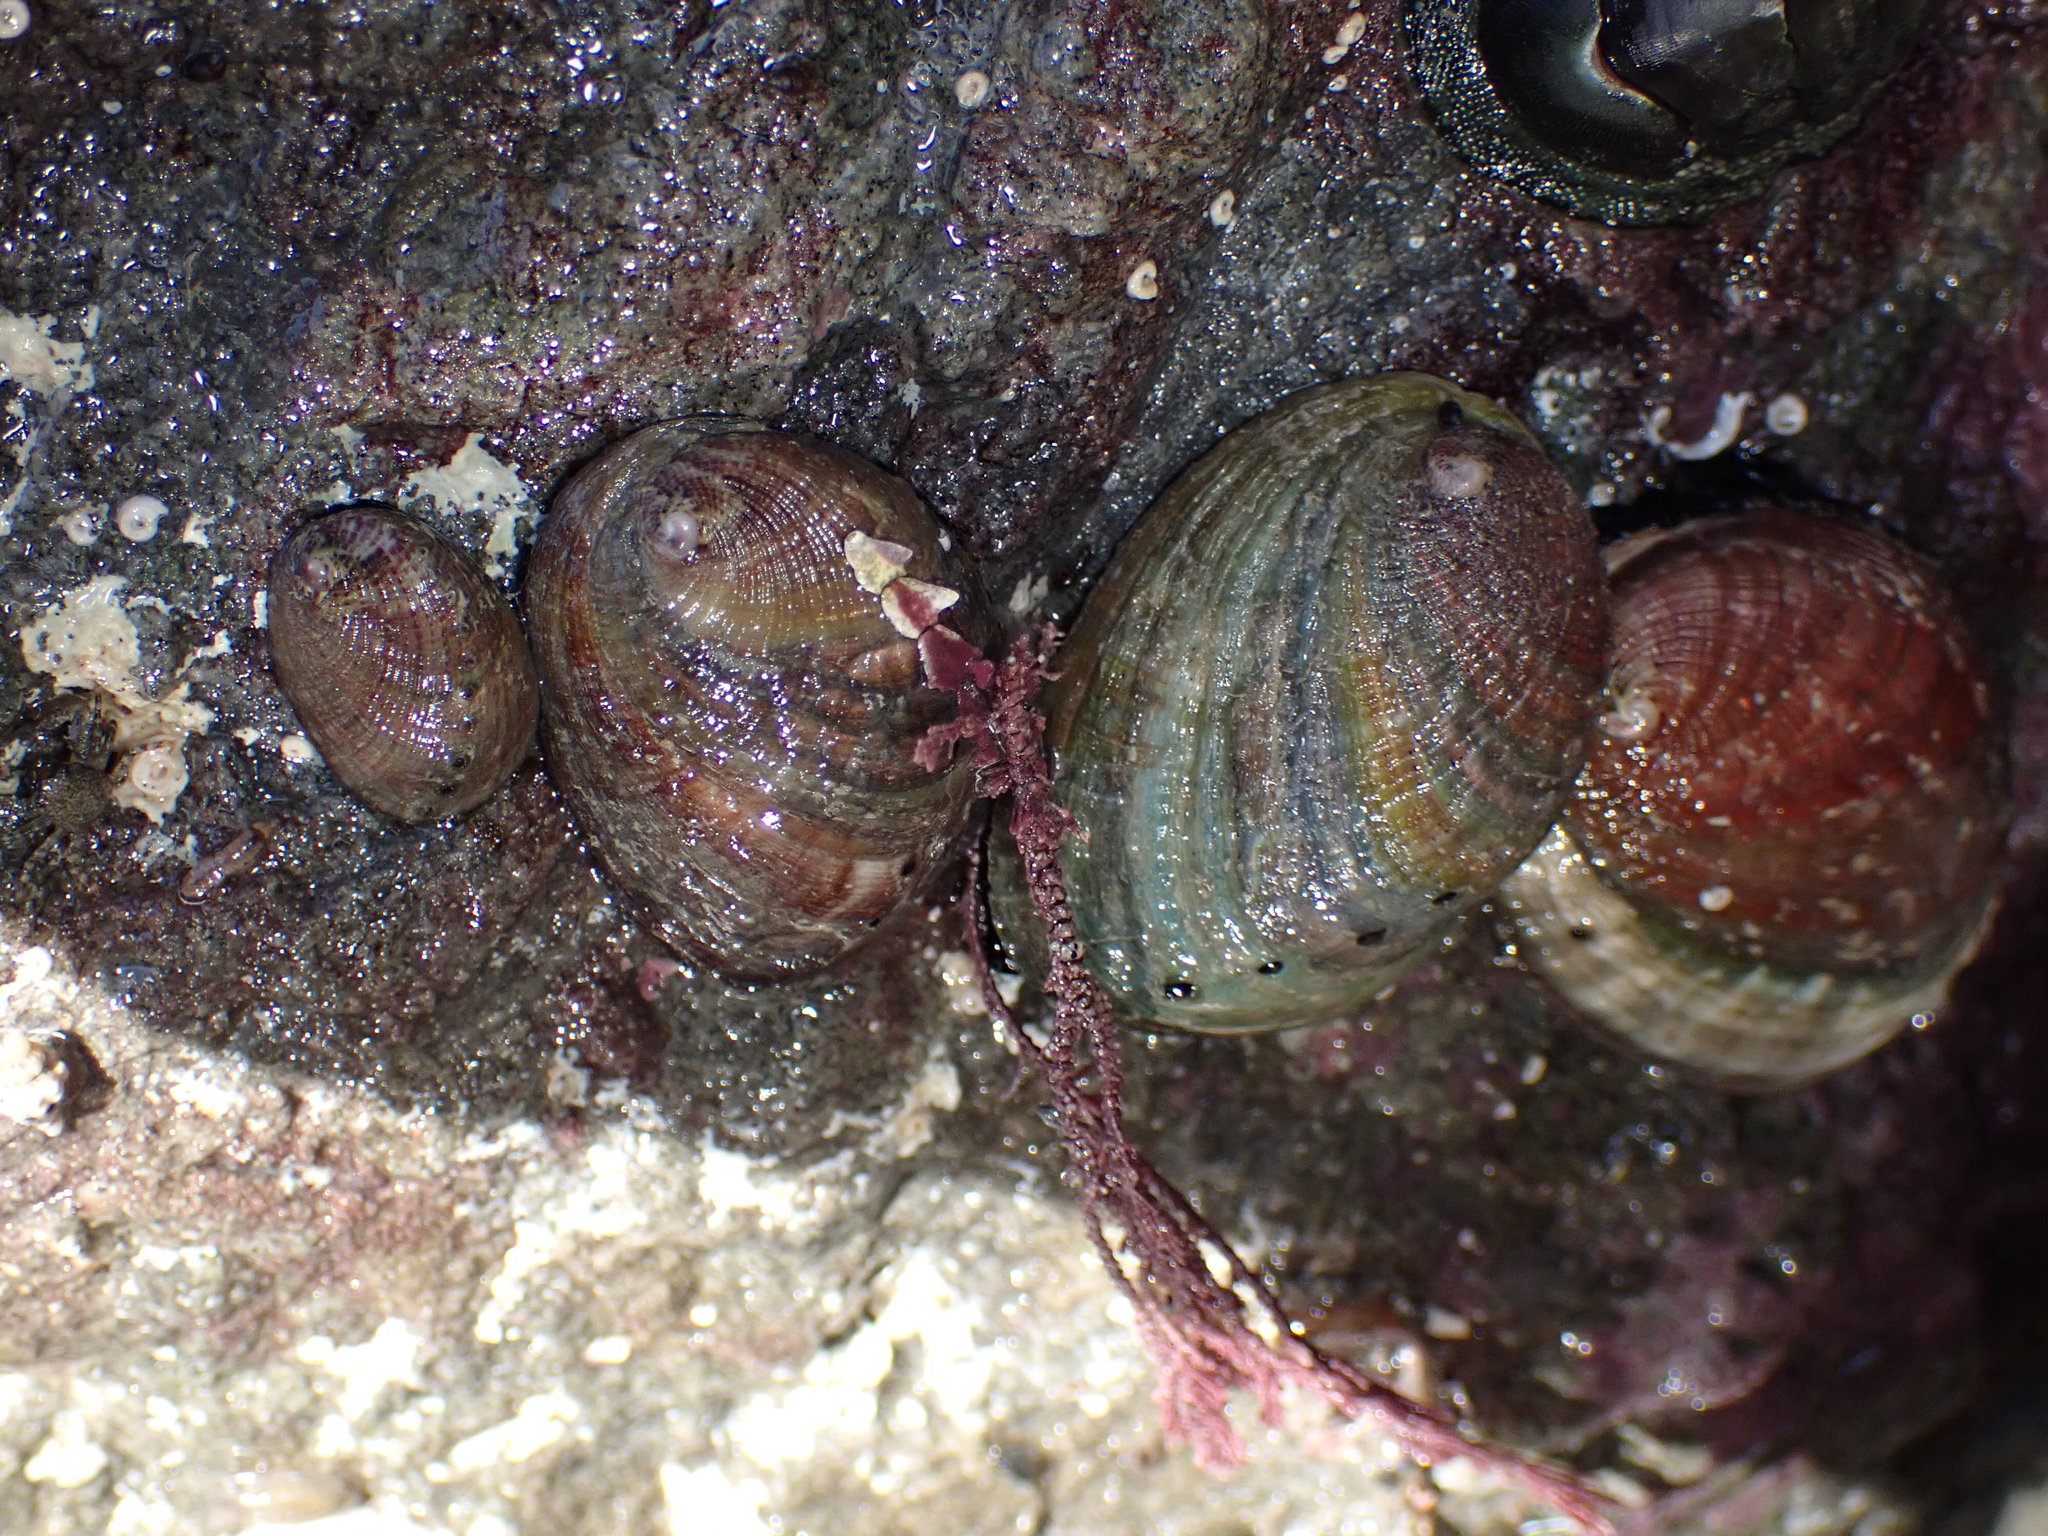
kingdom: Animalia
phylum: Mollusca
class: Gastropoda
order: Lepetellida
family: Haliotidae
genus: Haliotis
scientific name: Haliotis iris
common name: Abalone
